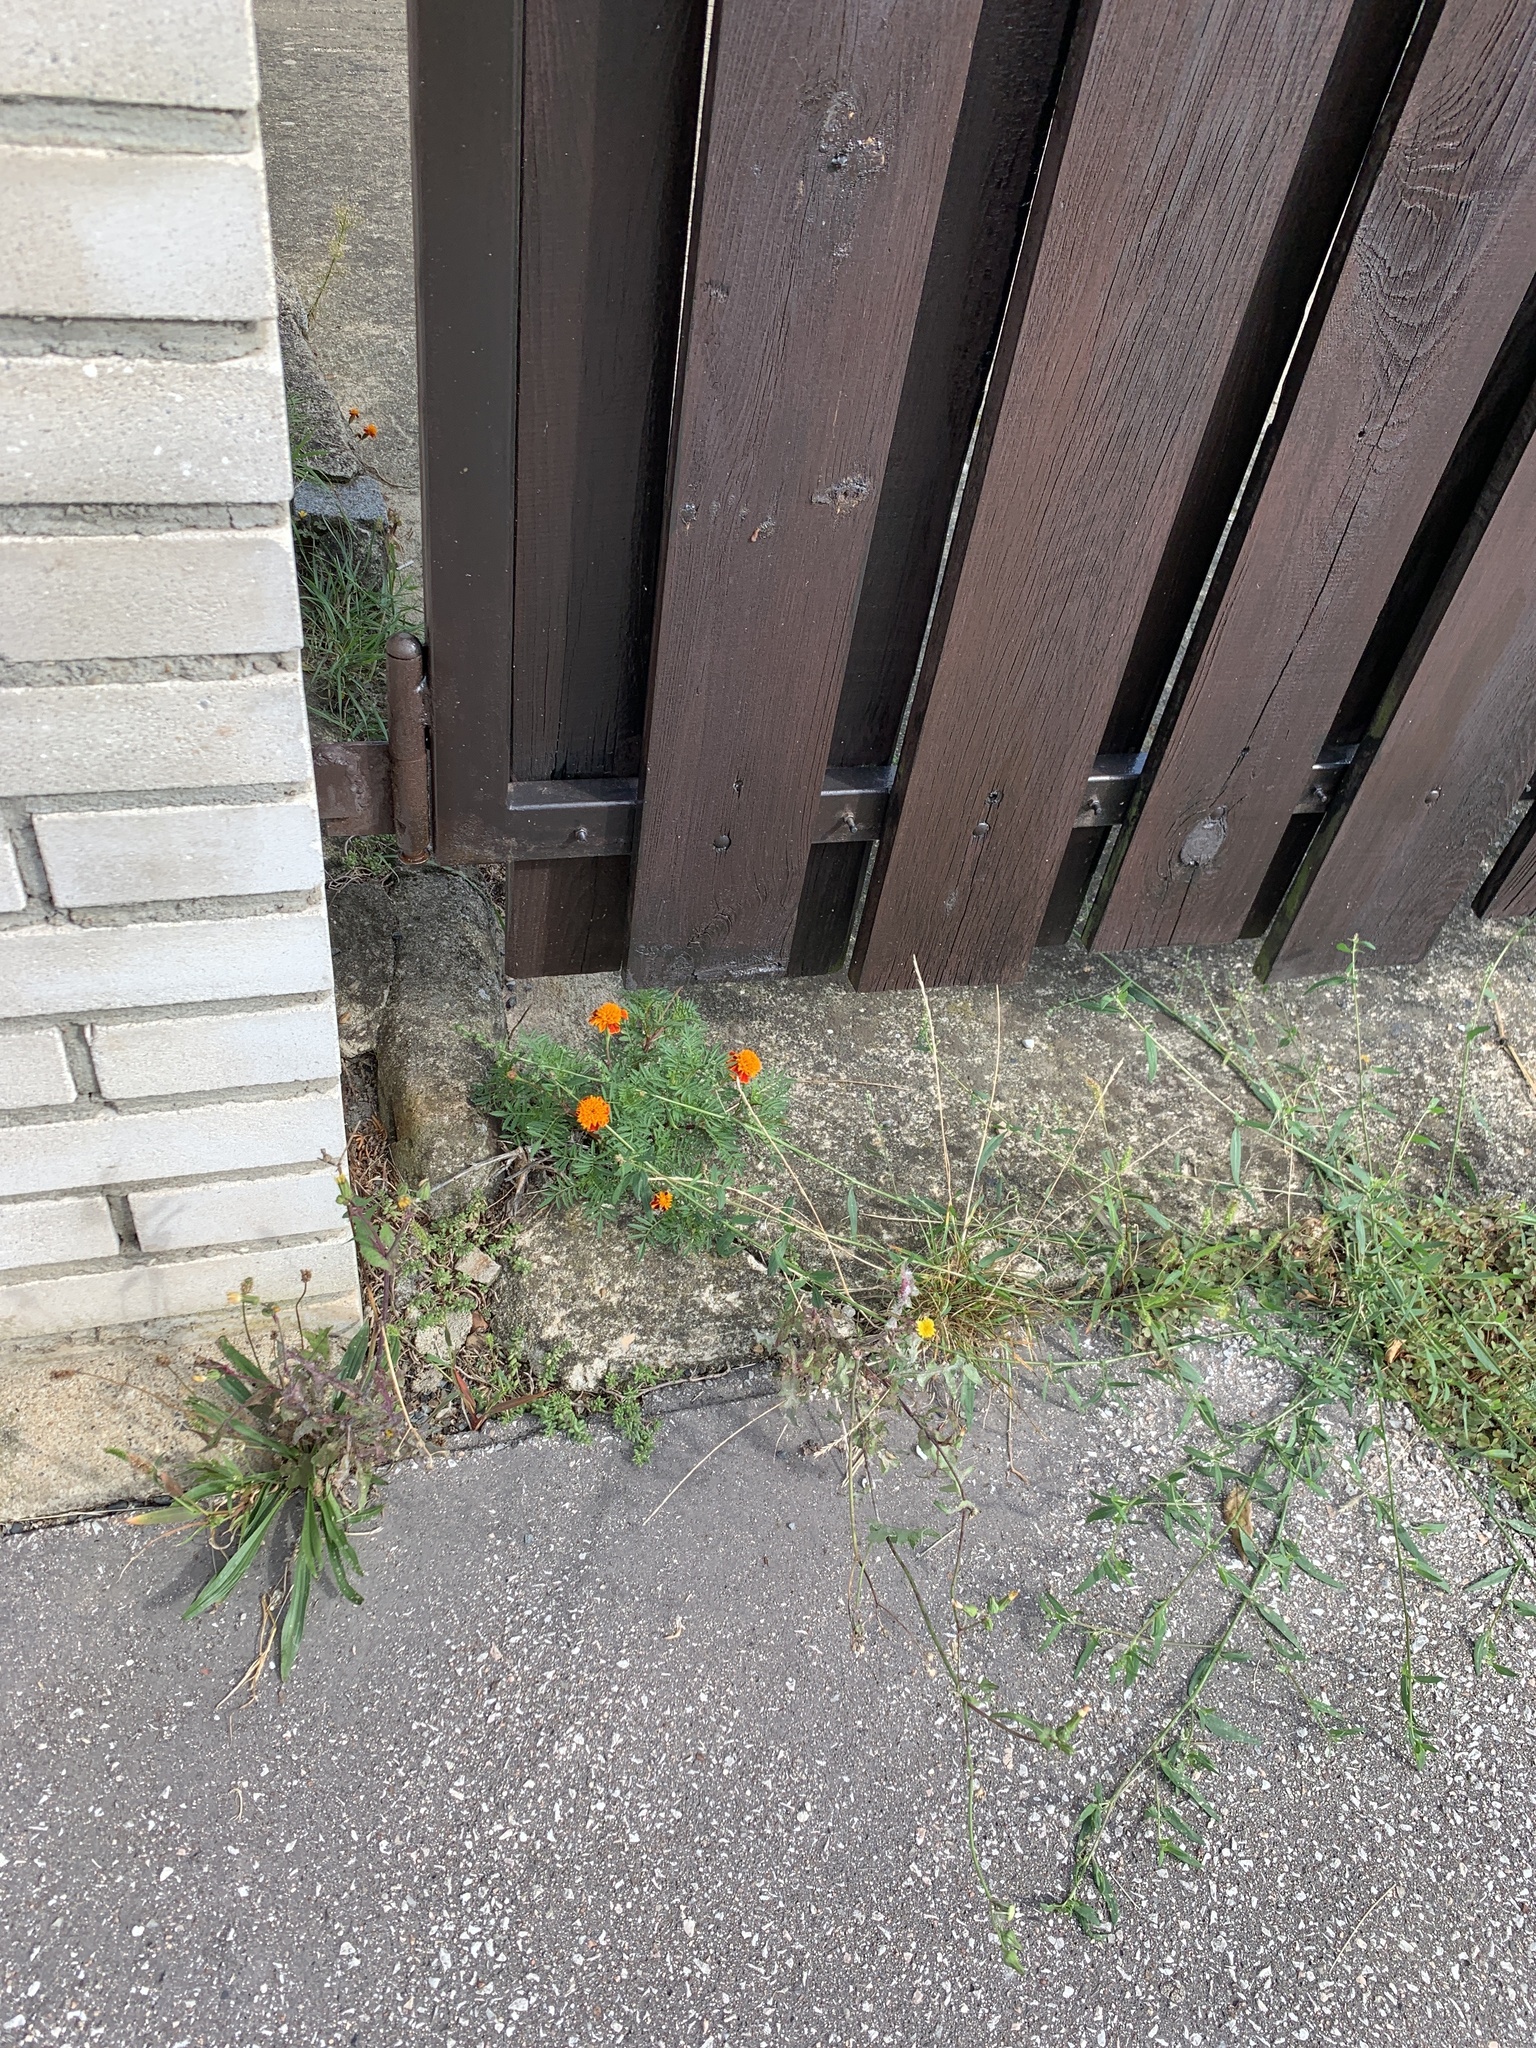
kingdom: Plantae
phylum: Tracheophyta
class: Magnoliopsida
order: Asterales
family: Asteraceae
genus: Tagetes
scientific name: Tagetes erecta
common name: African marigold
